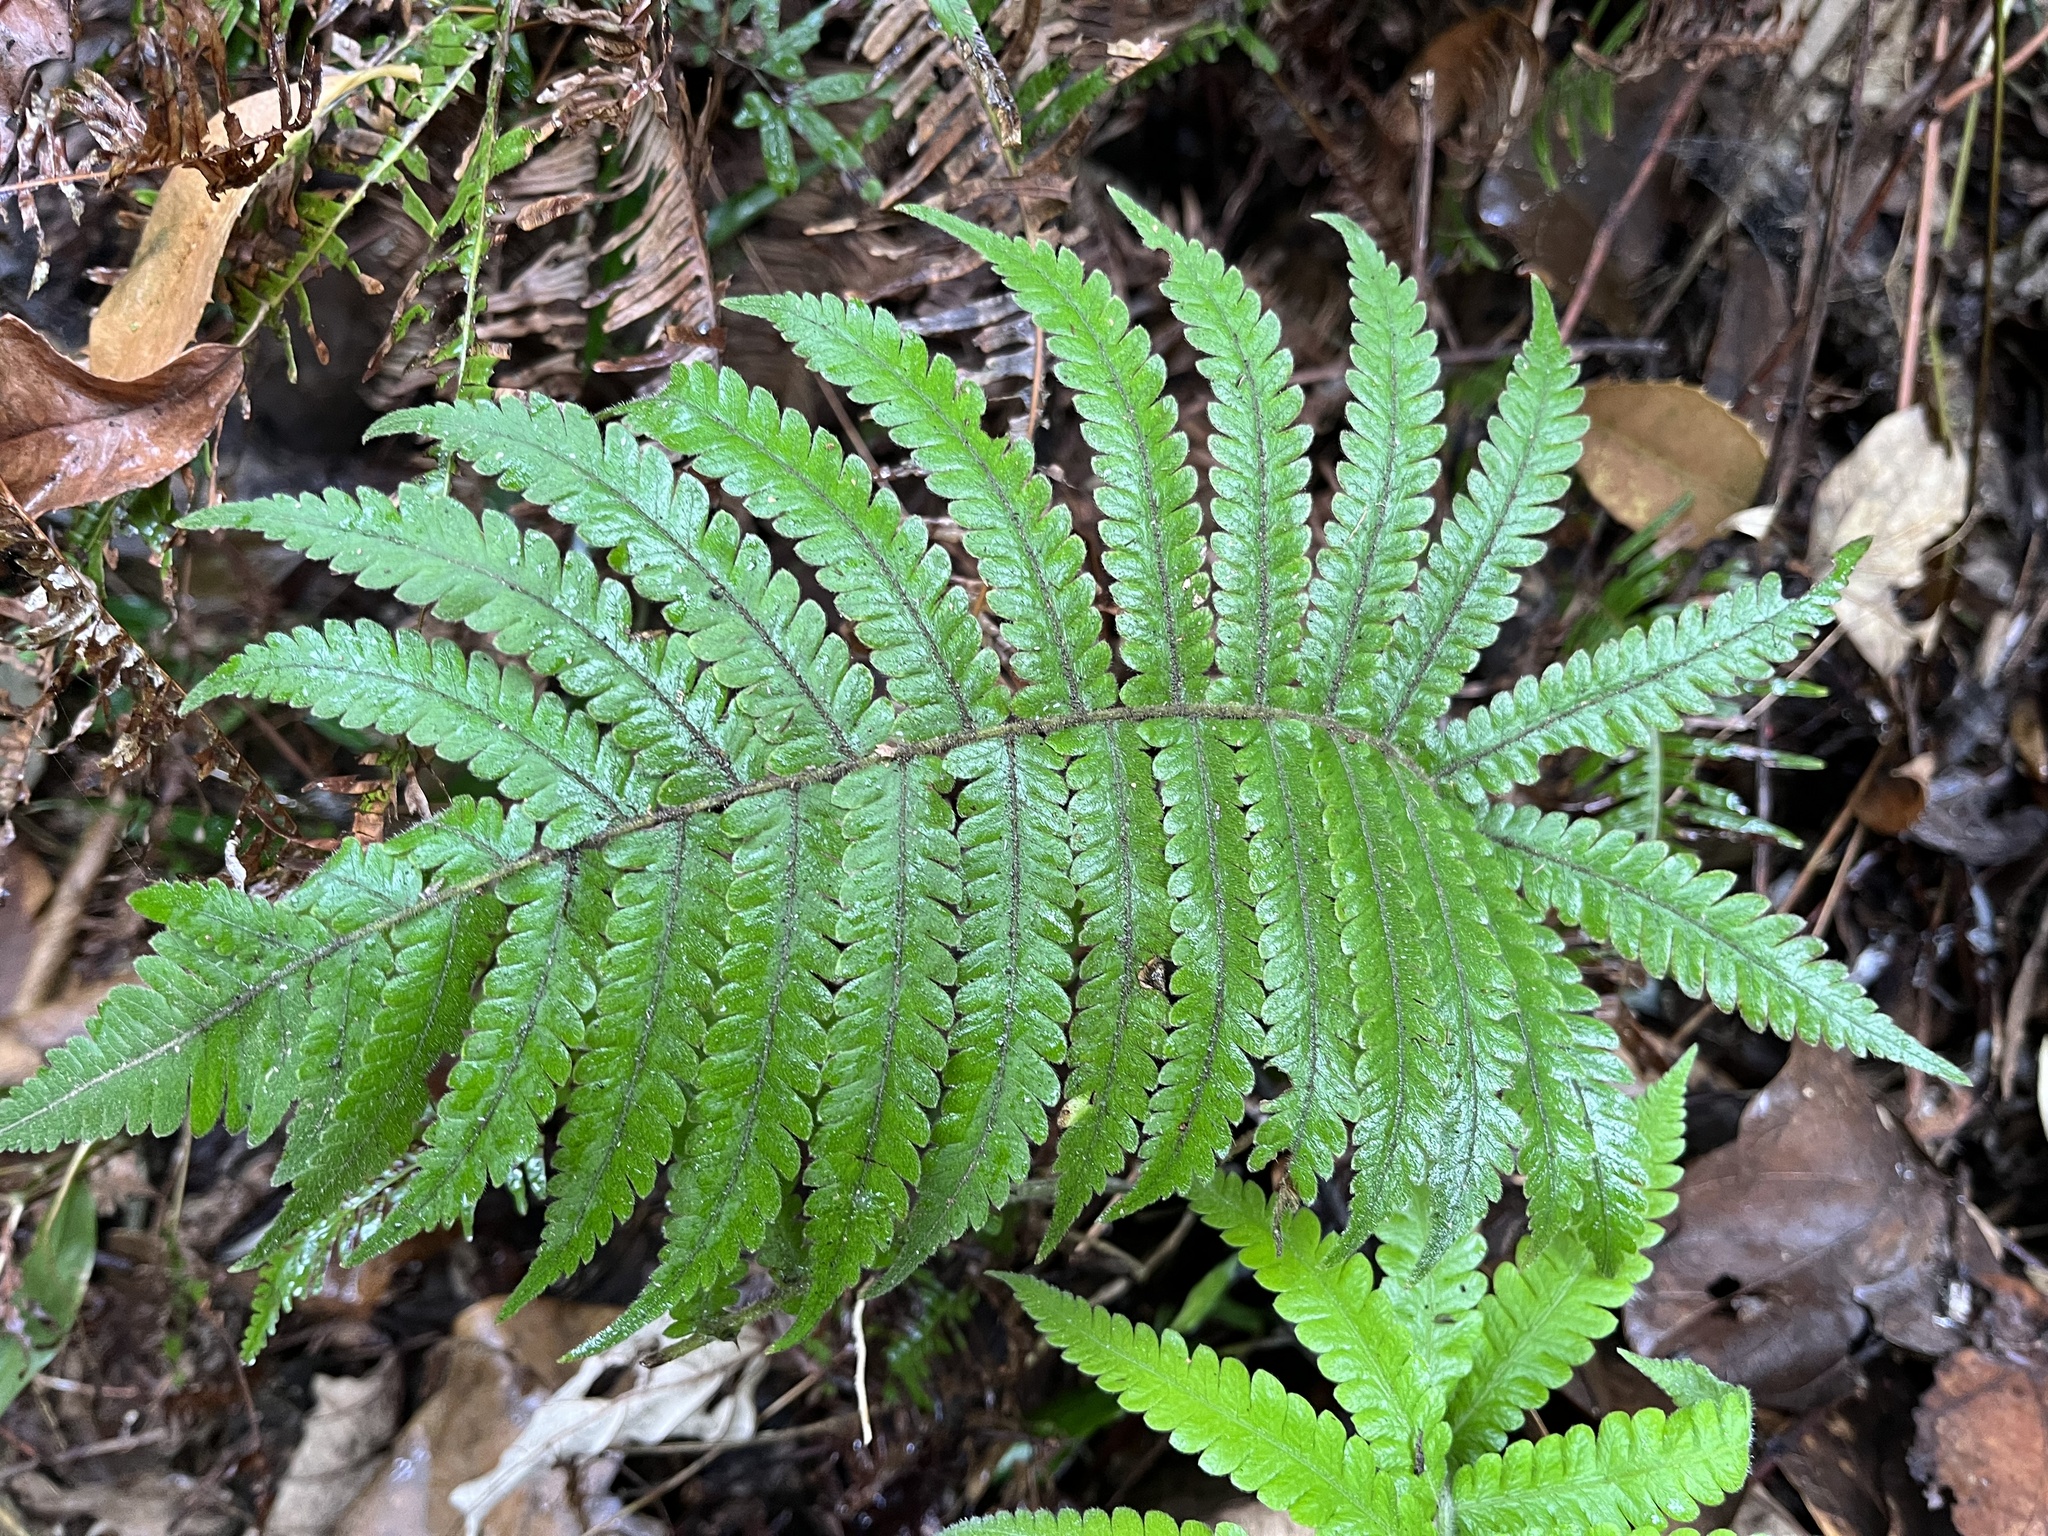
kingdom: Plantae
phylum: Tracheophyta
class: Polypodiopsida
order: Polypodiales
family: Thelypteridaceae
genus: Christella
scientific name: Christella parasitica
